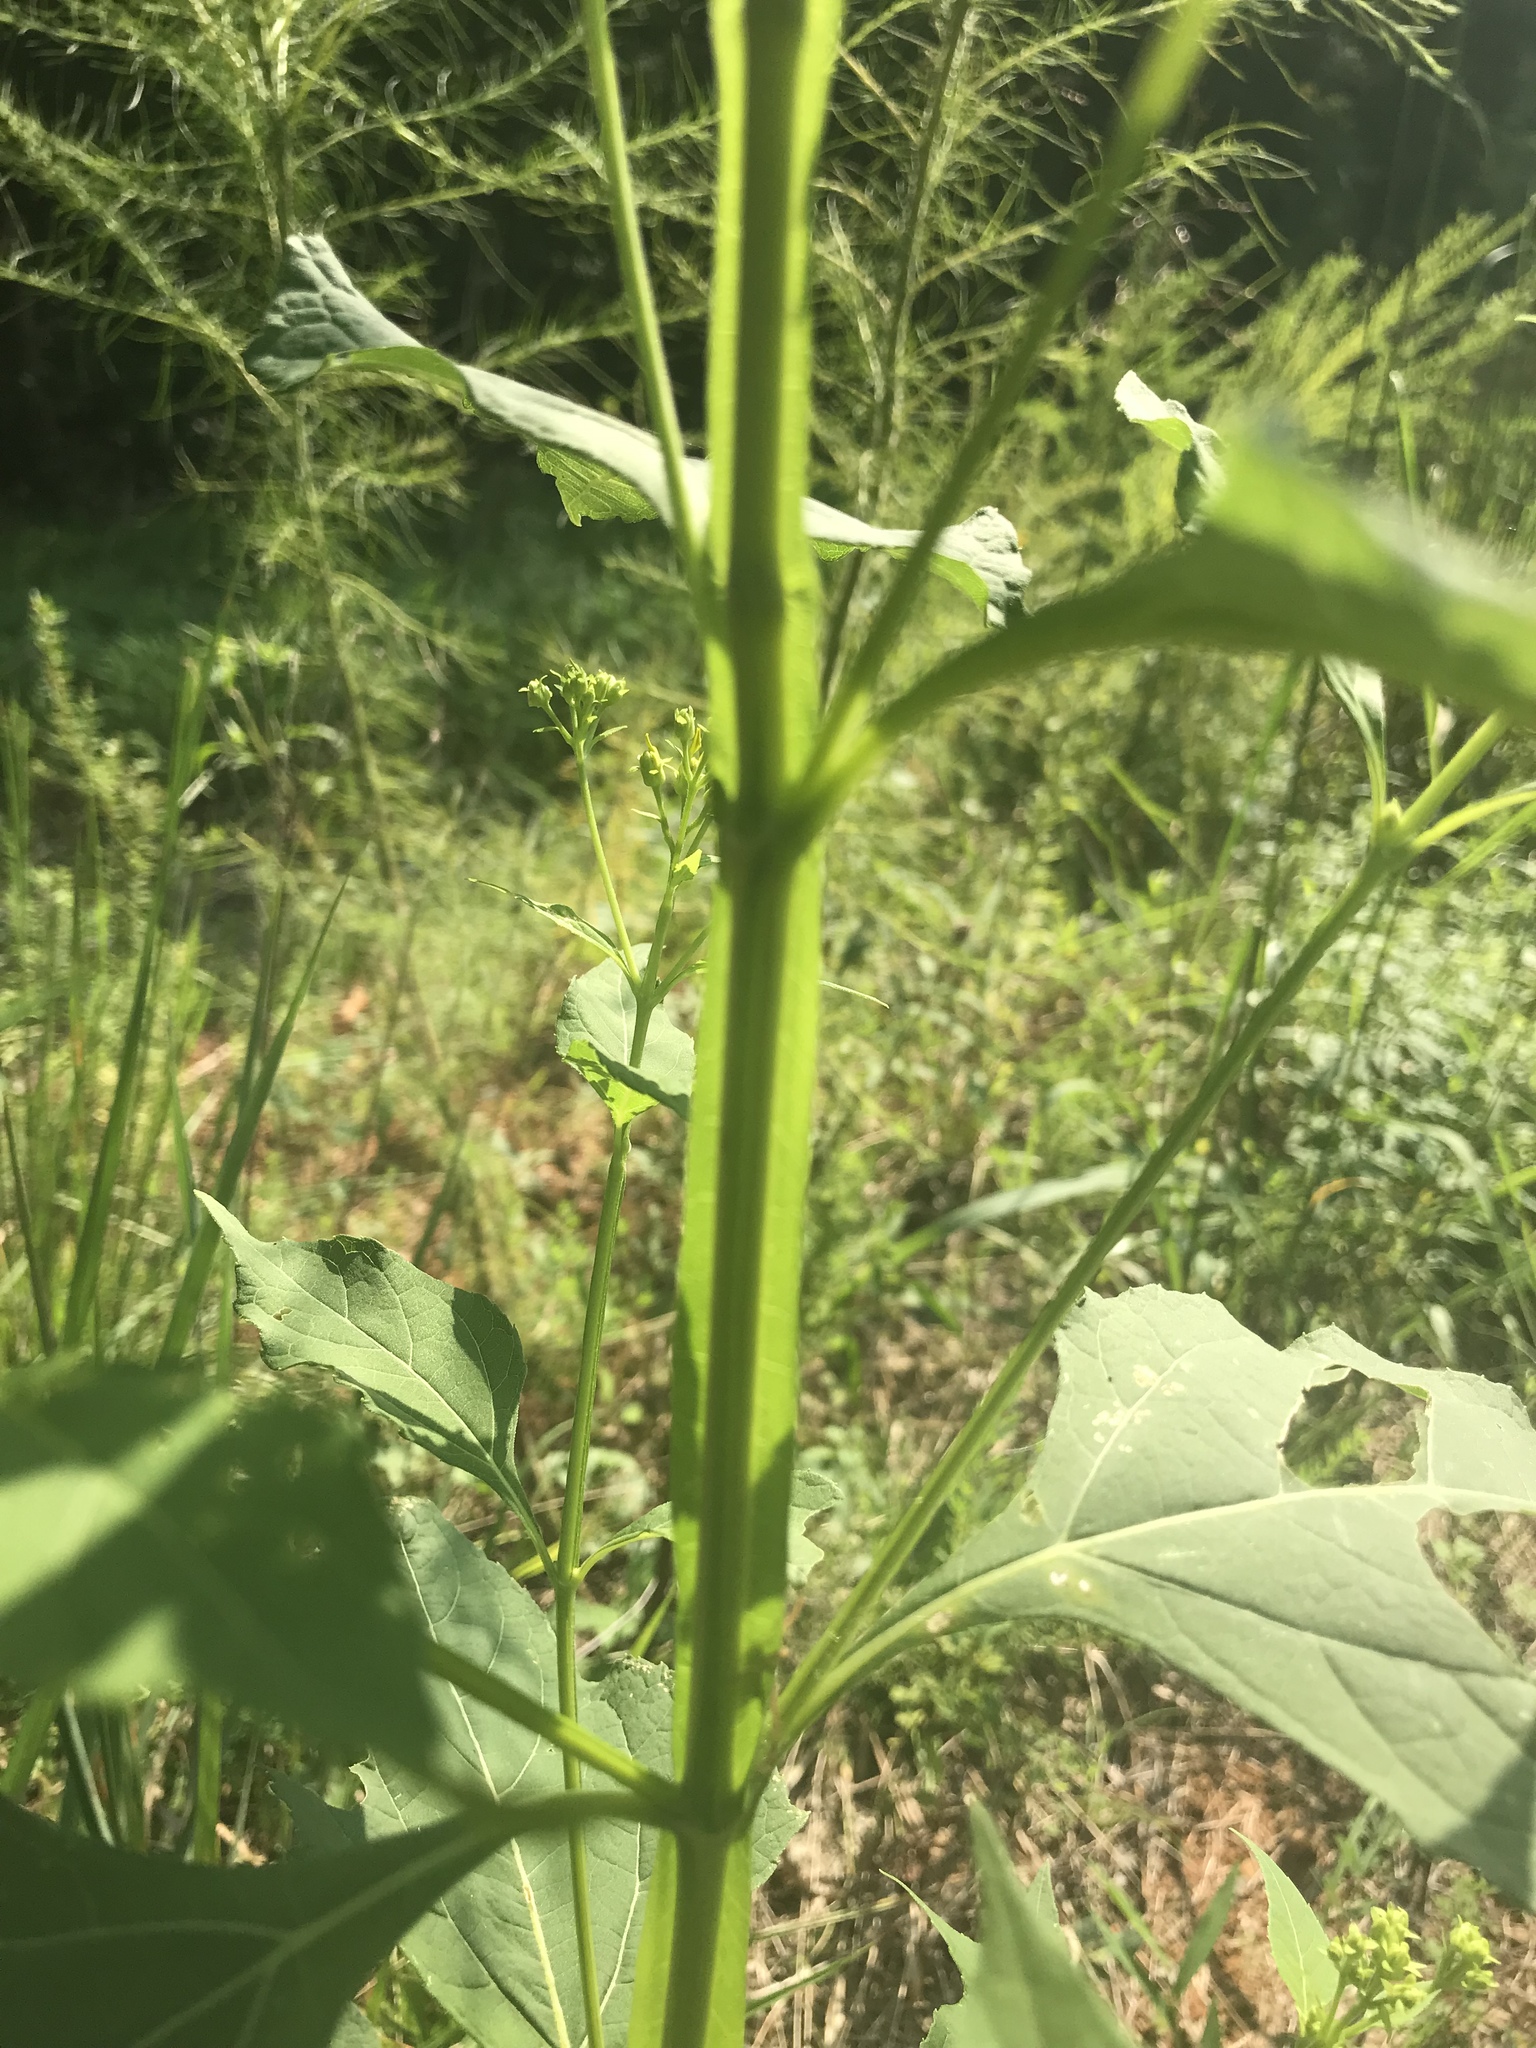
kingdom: Plantae
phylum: Tracheophyta
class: Magnoliopsida
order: Asterales
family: Asteraceae
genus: Verbesina
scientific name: Verbesina occidentalis
